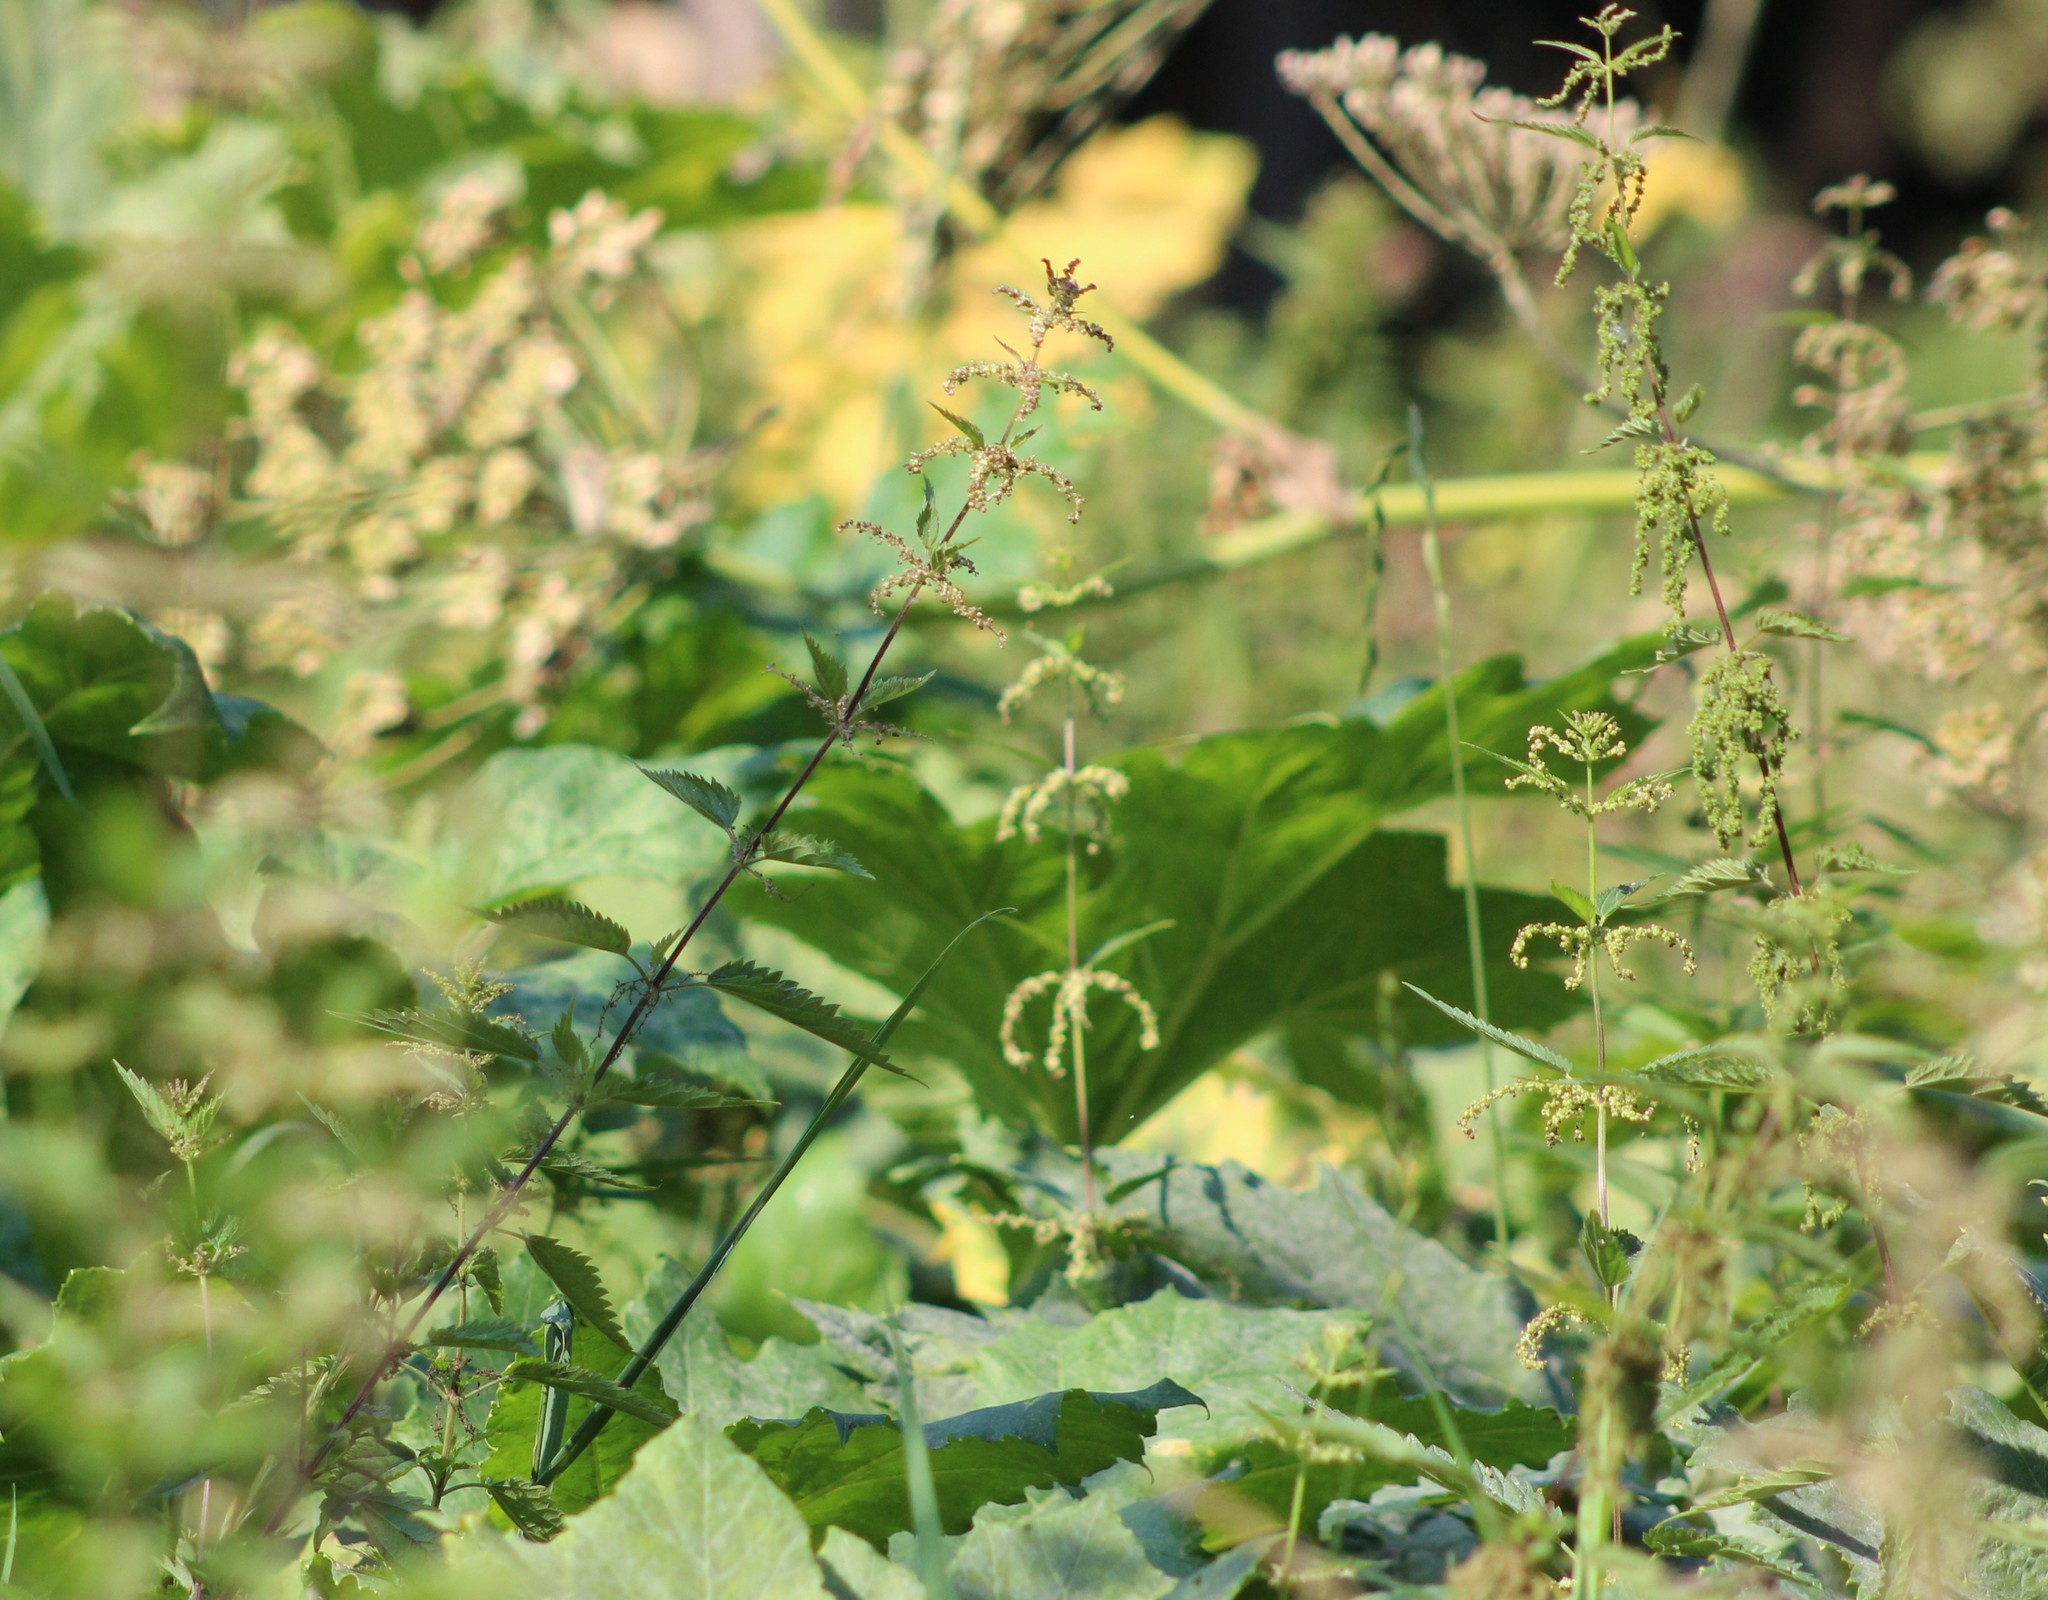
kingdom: Plantae
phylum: Tracheophyta
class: Magnoliopsida
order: Rosales
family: Urticaceae
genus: Urtica
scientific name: Urtica dioica
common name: Common nettle
